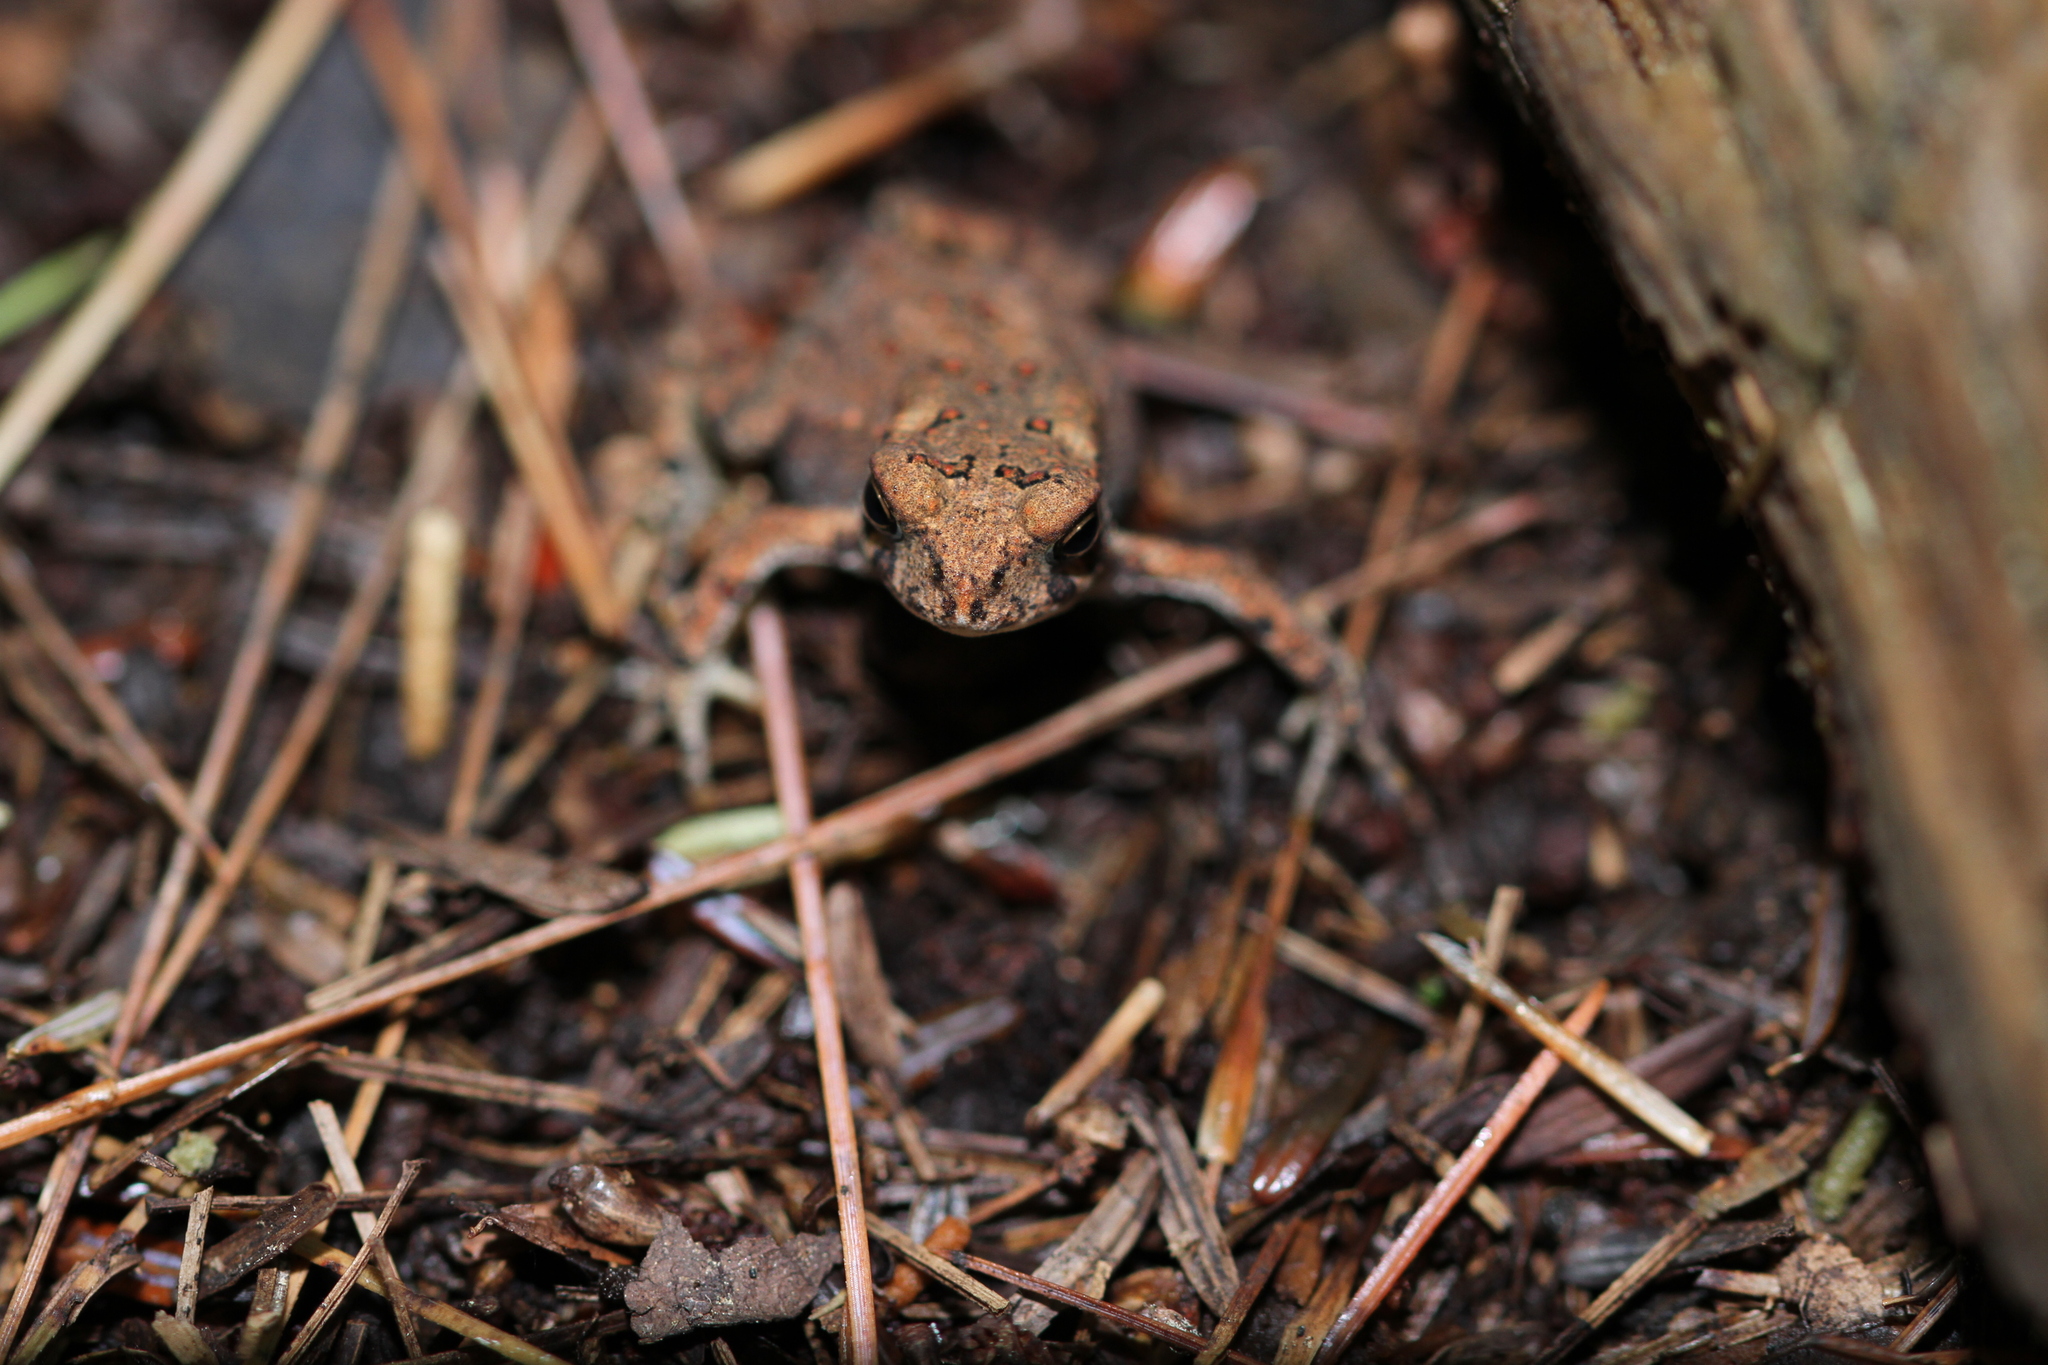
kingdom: Animalia
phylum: Chordata
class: Amphibia
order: Anura
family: Bufonidae
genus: Anaxyrus
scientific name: Anaxyrus americanus
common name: American toad
